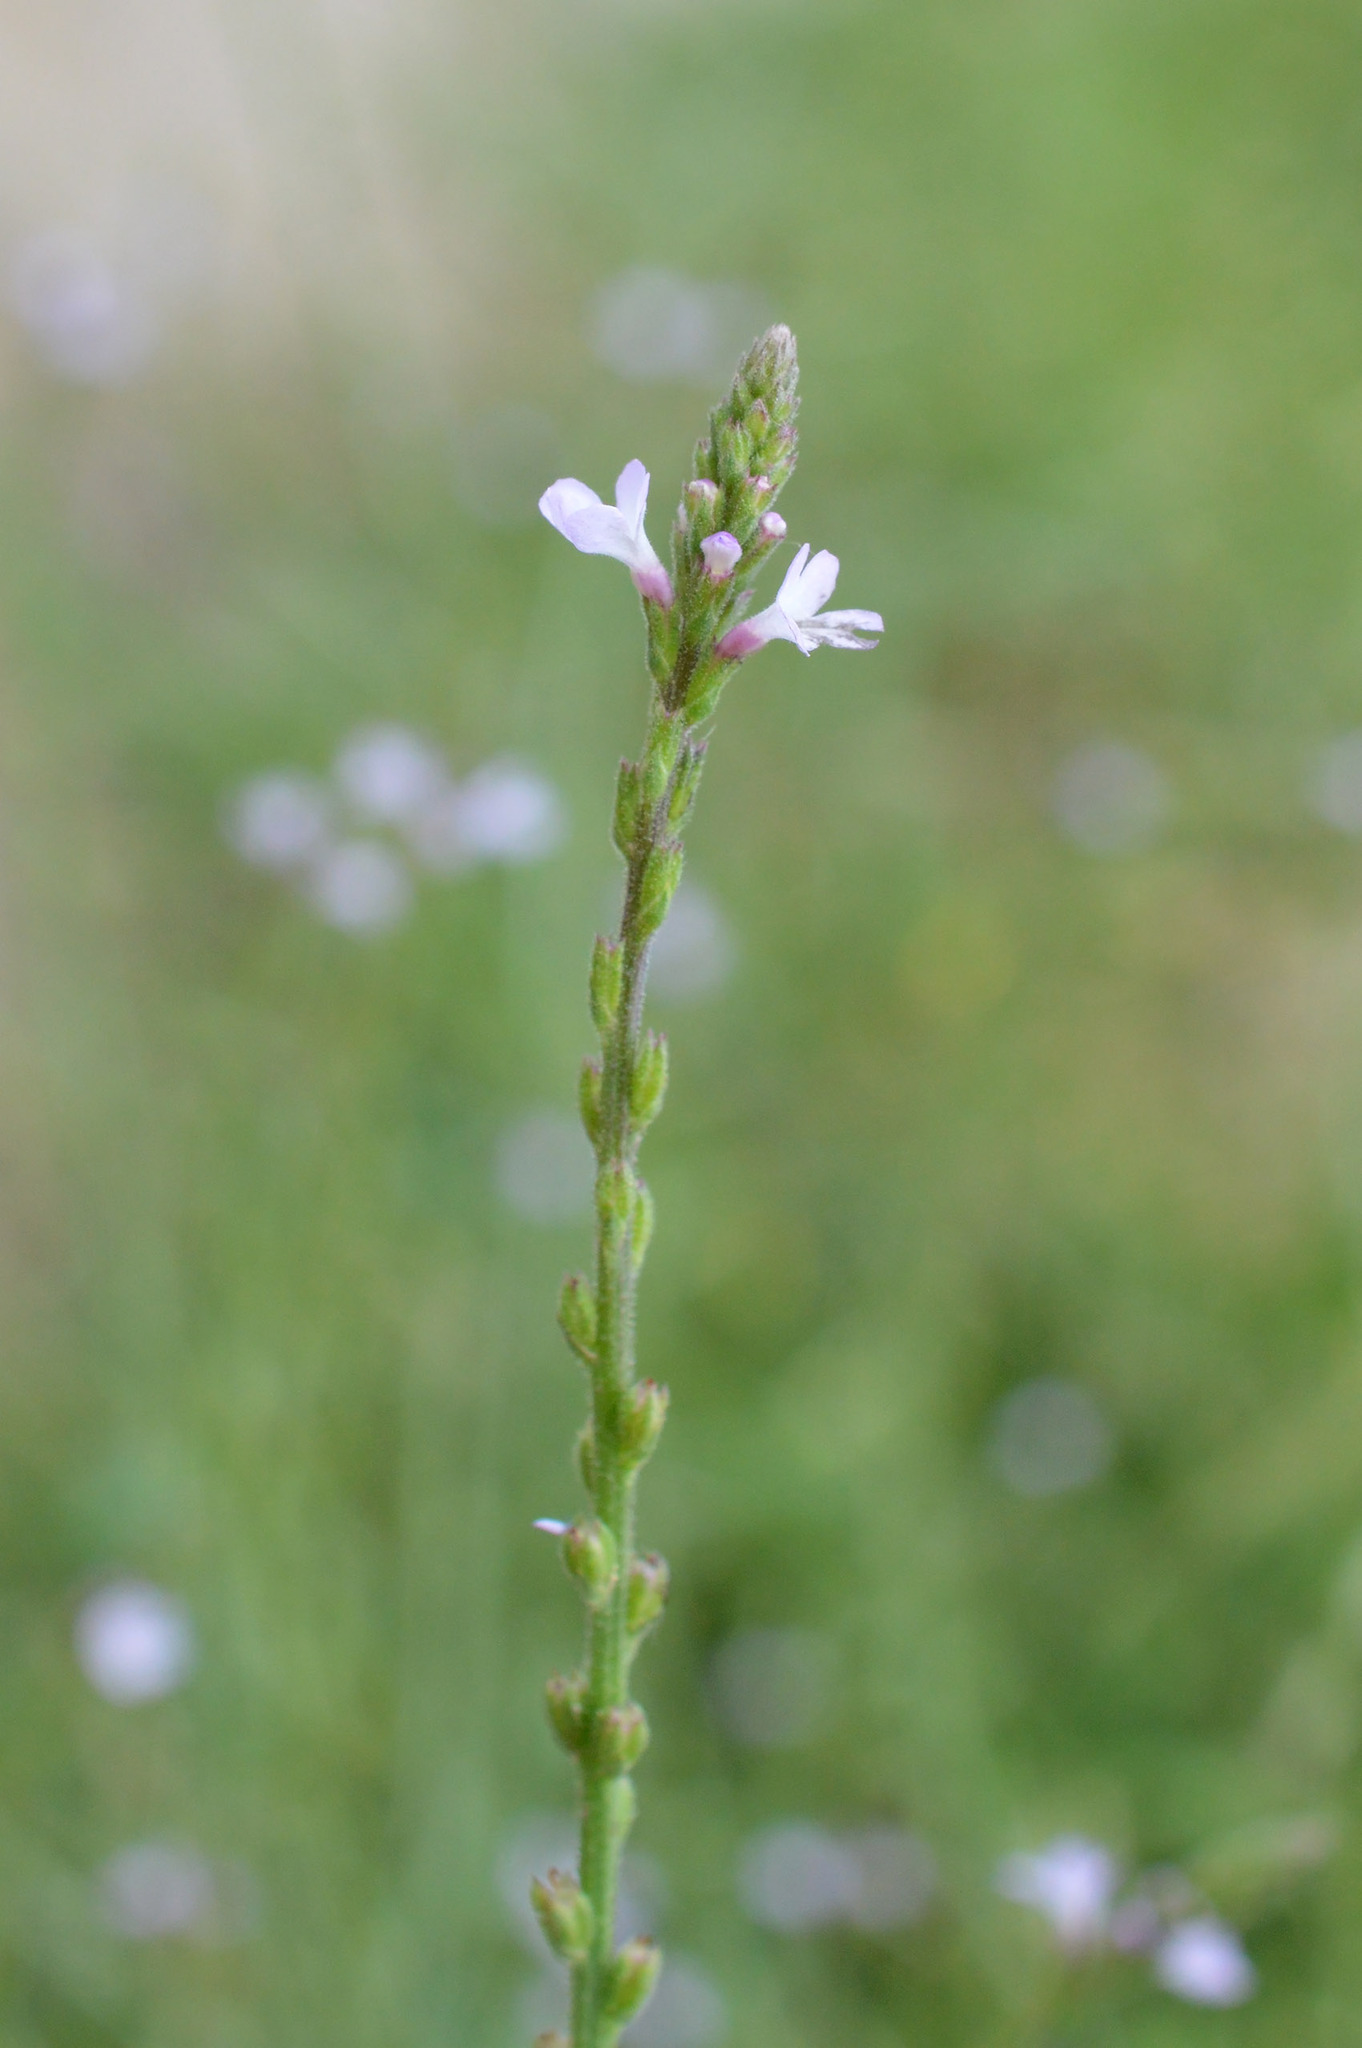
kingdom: Plantae
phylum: Tracheophyta
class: Magnoliopsida
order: Lamiales
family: Verbenaceae
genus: Verbena
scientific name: Verbena officinalis
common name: Vervain
